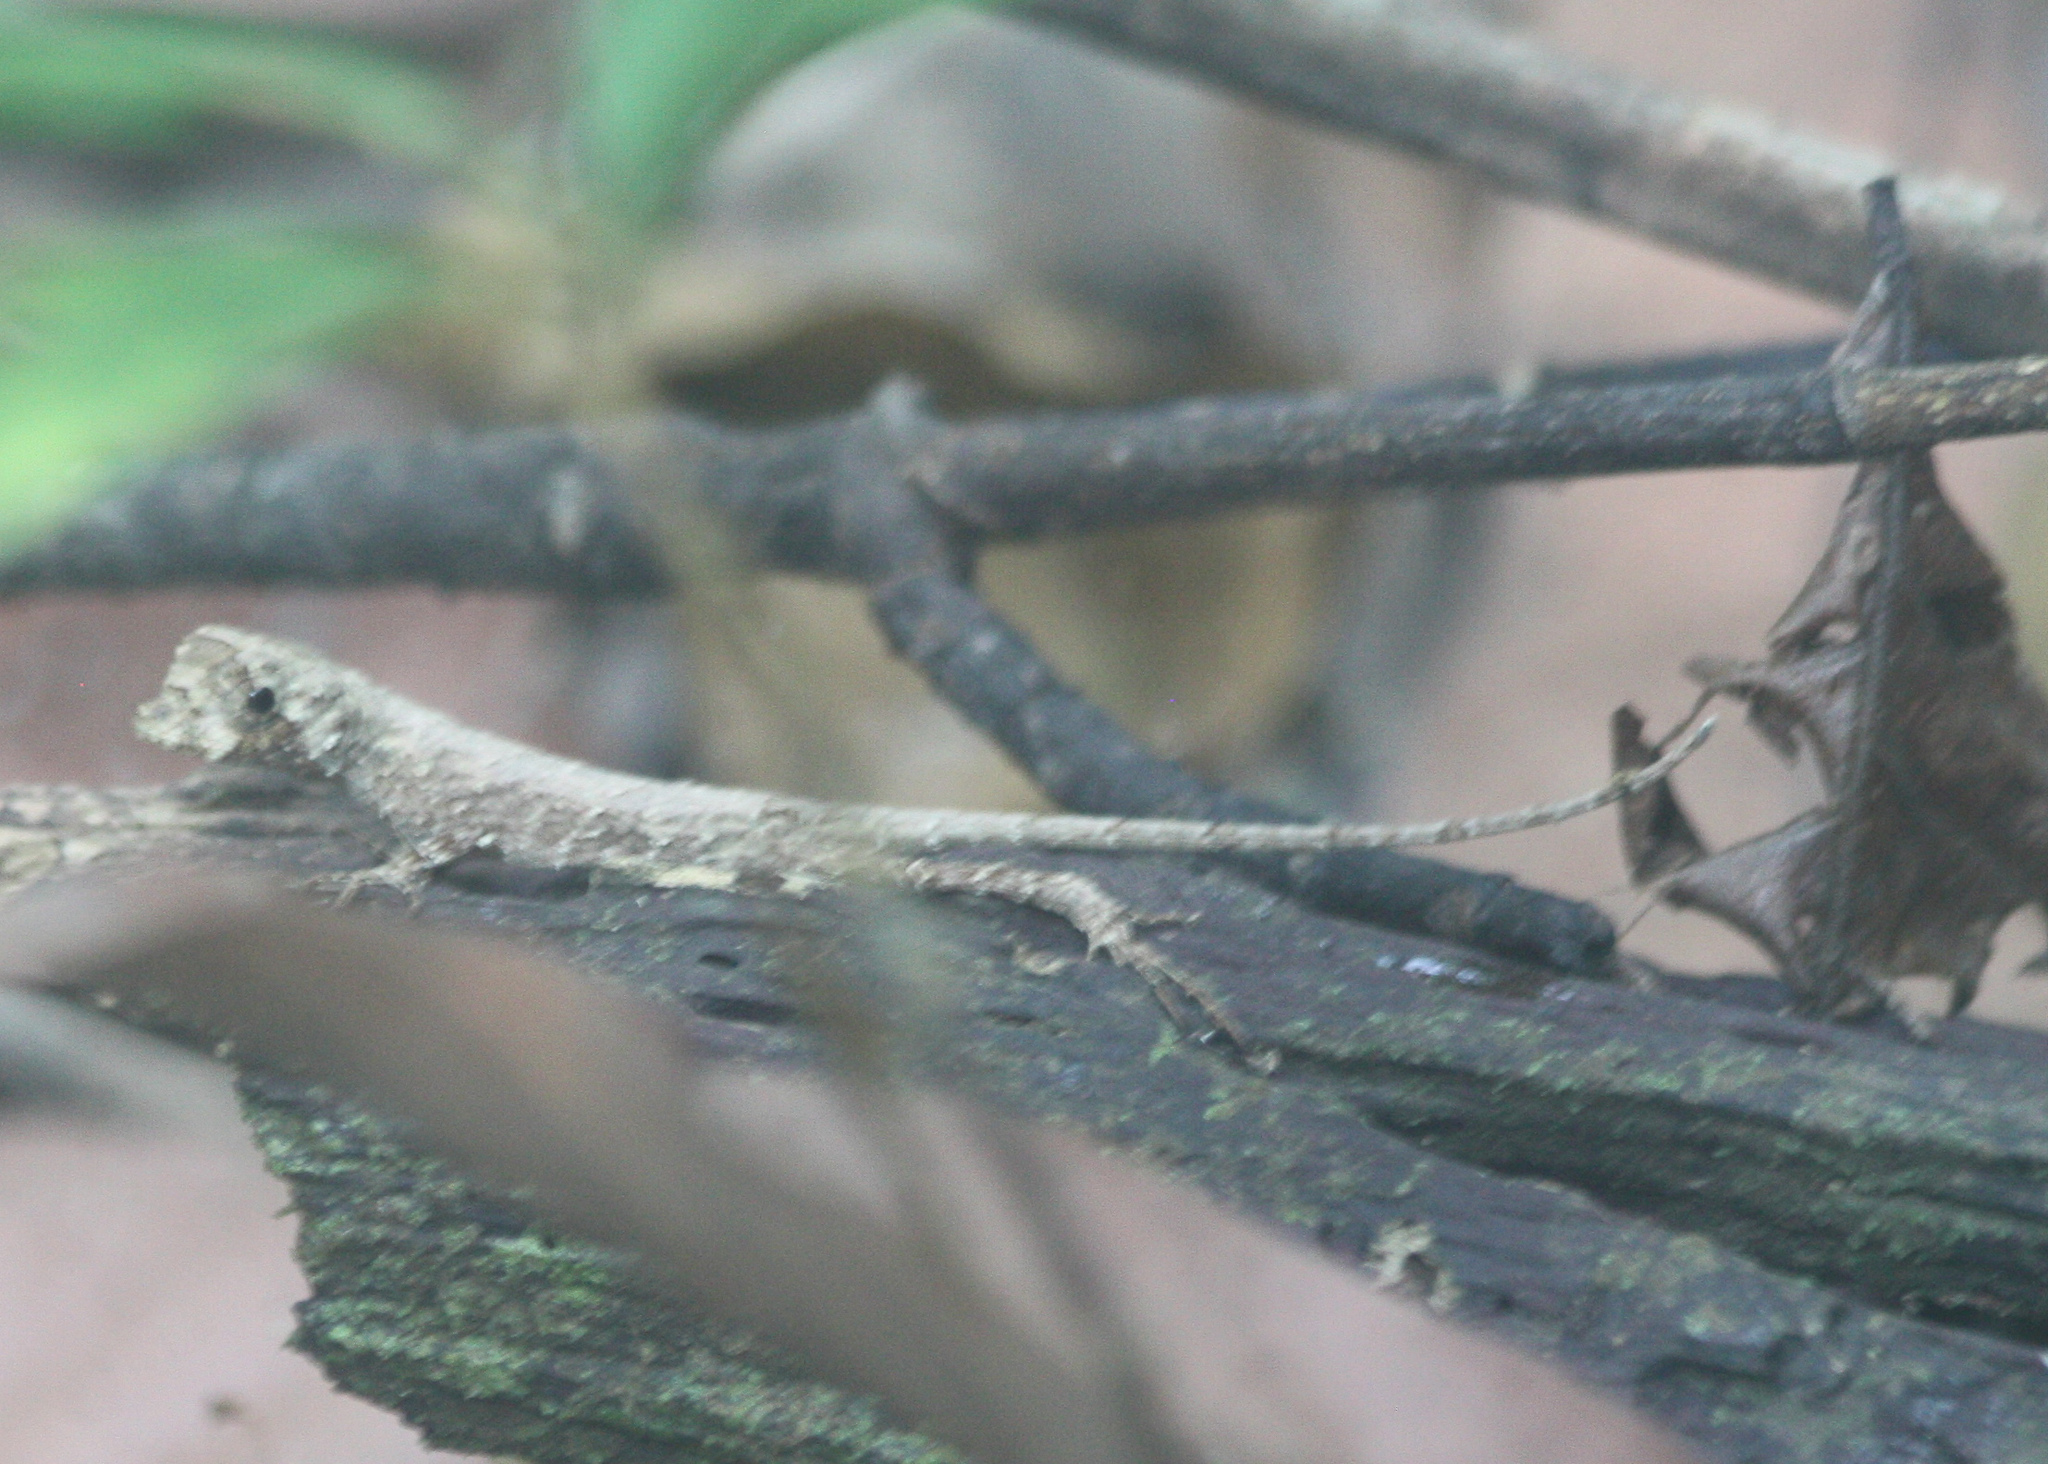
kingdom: Animalia
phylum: Chordata
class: Squamata
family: Dactyloidae
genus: Anolis
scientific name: Anolis capito
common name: Bighead anole
